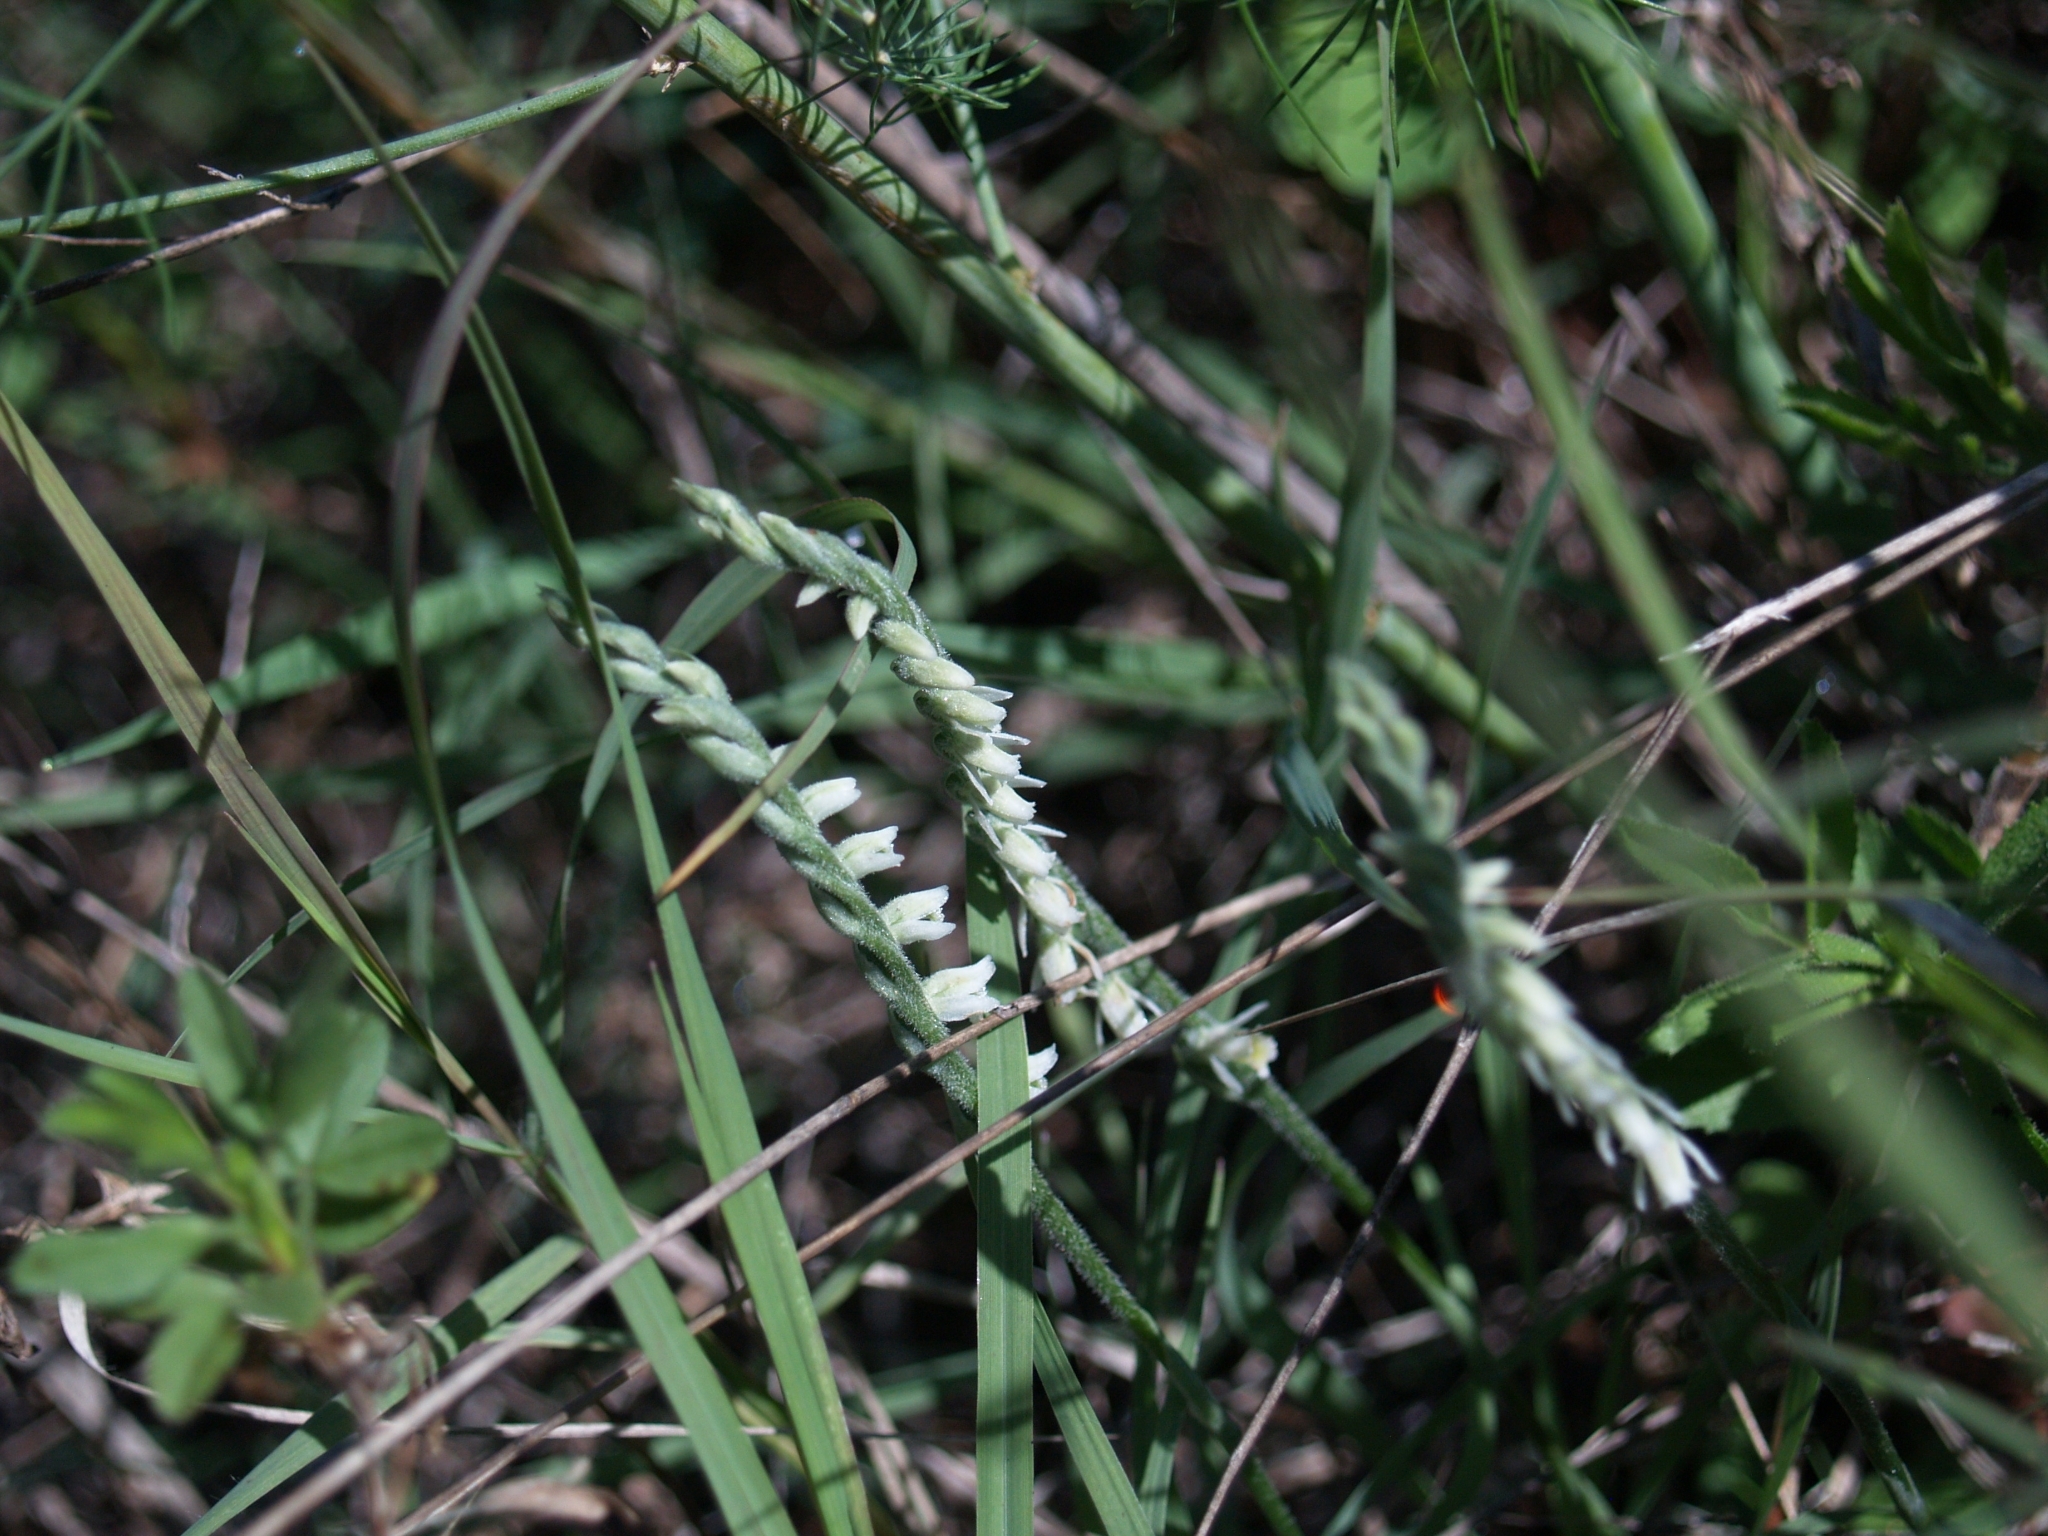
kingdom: Plantae
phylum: Tracheophyta
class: Liliopsida
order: Asparagales
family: Orchidaceae
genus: Spiranthes
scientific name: Spiranthes spiralis
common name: Autumn lady's-tresses
